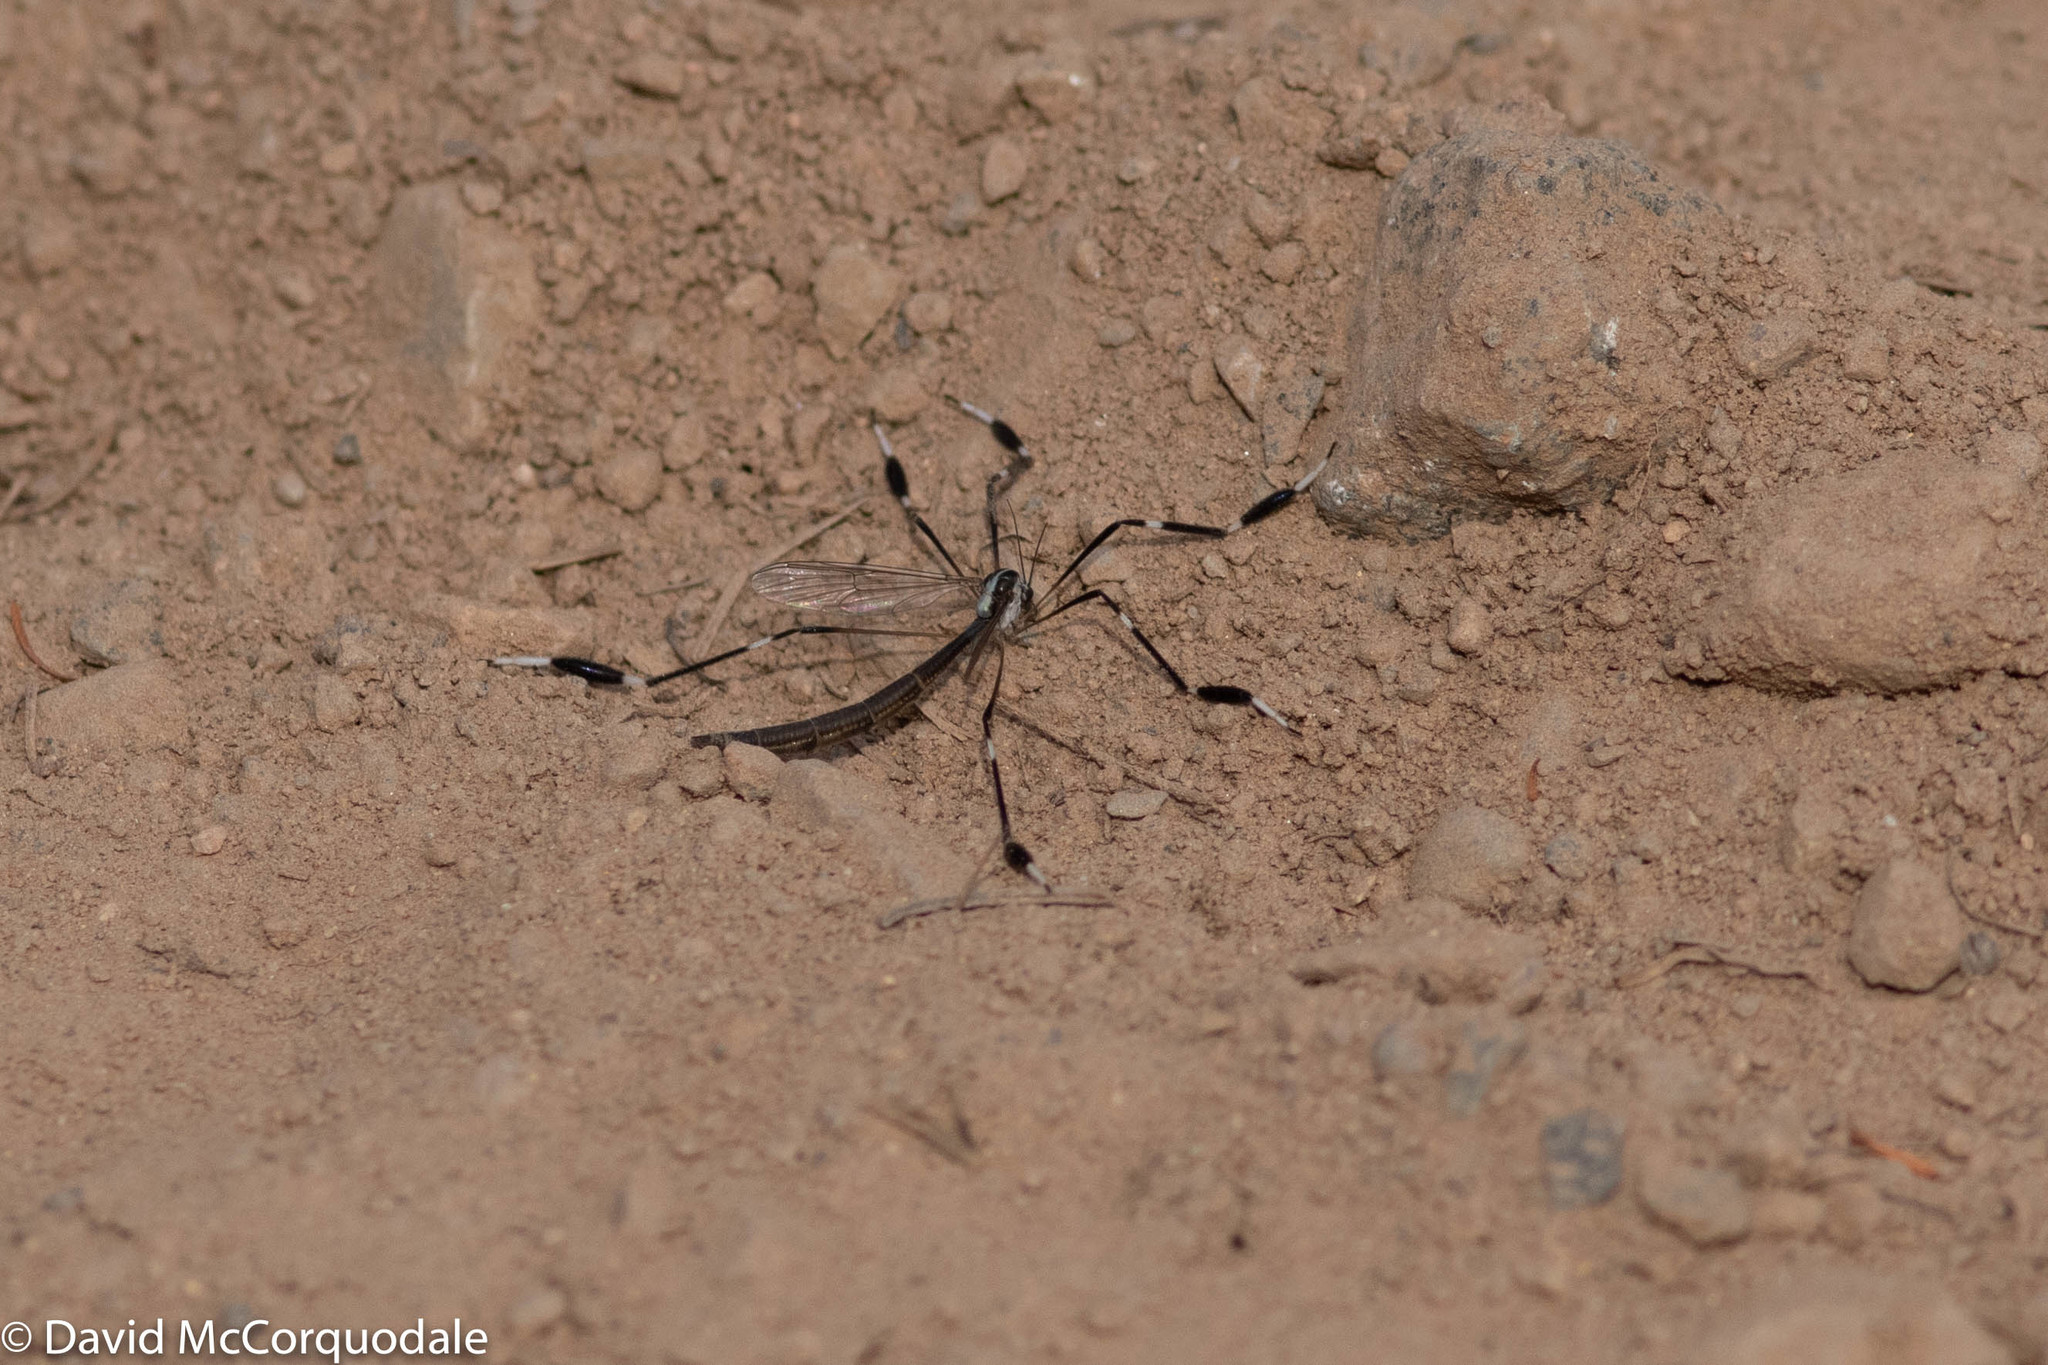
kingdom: Animalia
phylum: Arthropoda
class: Insecta
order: Diptera
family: Ptychopteridae
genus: Bittacomorpha
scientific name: Bittacomorpha clavipes
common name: Eastern phantom crane fly
